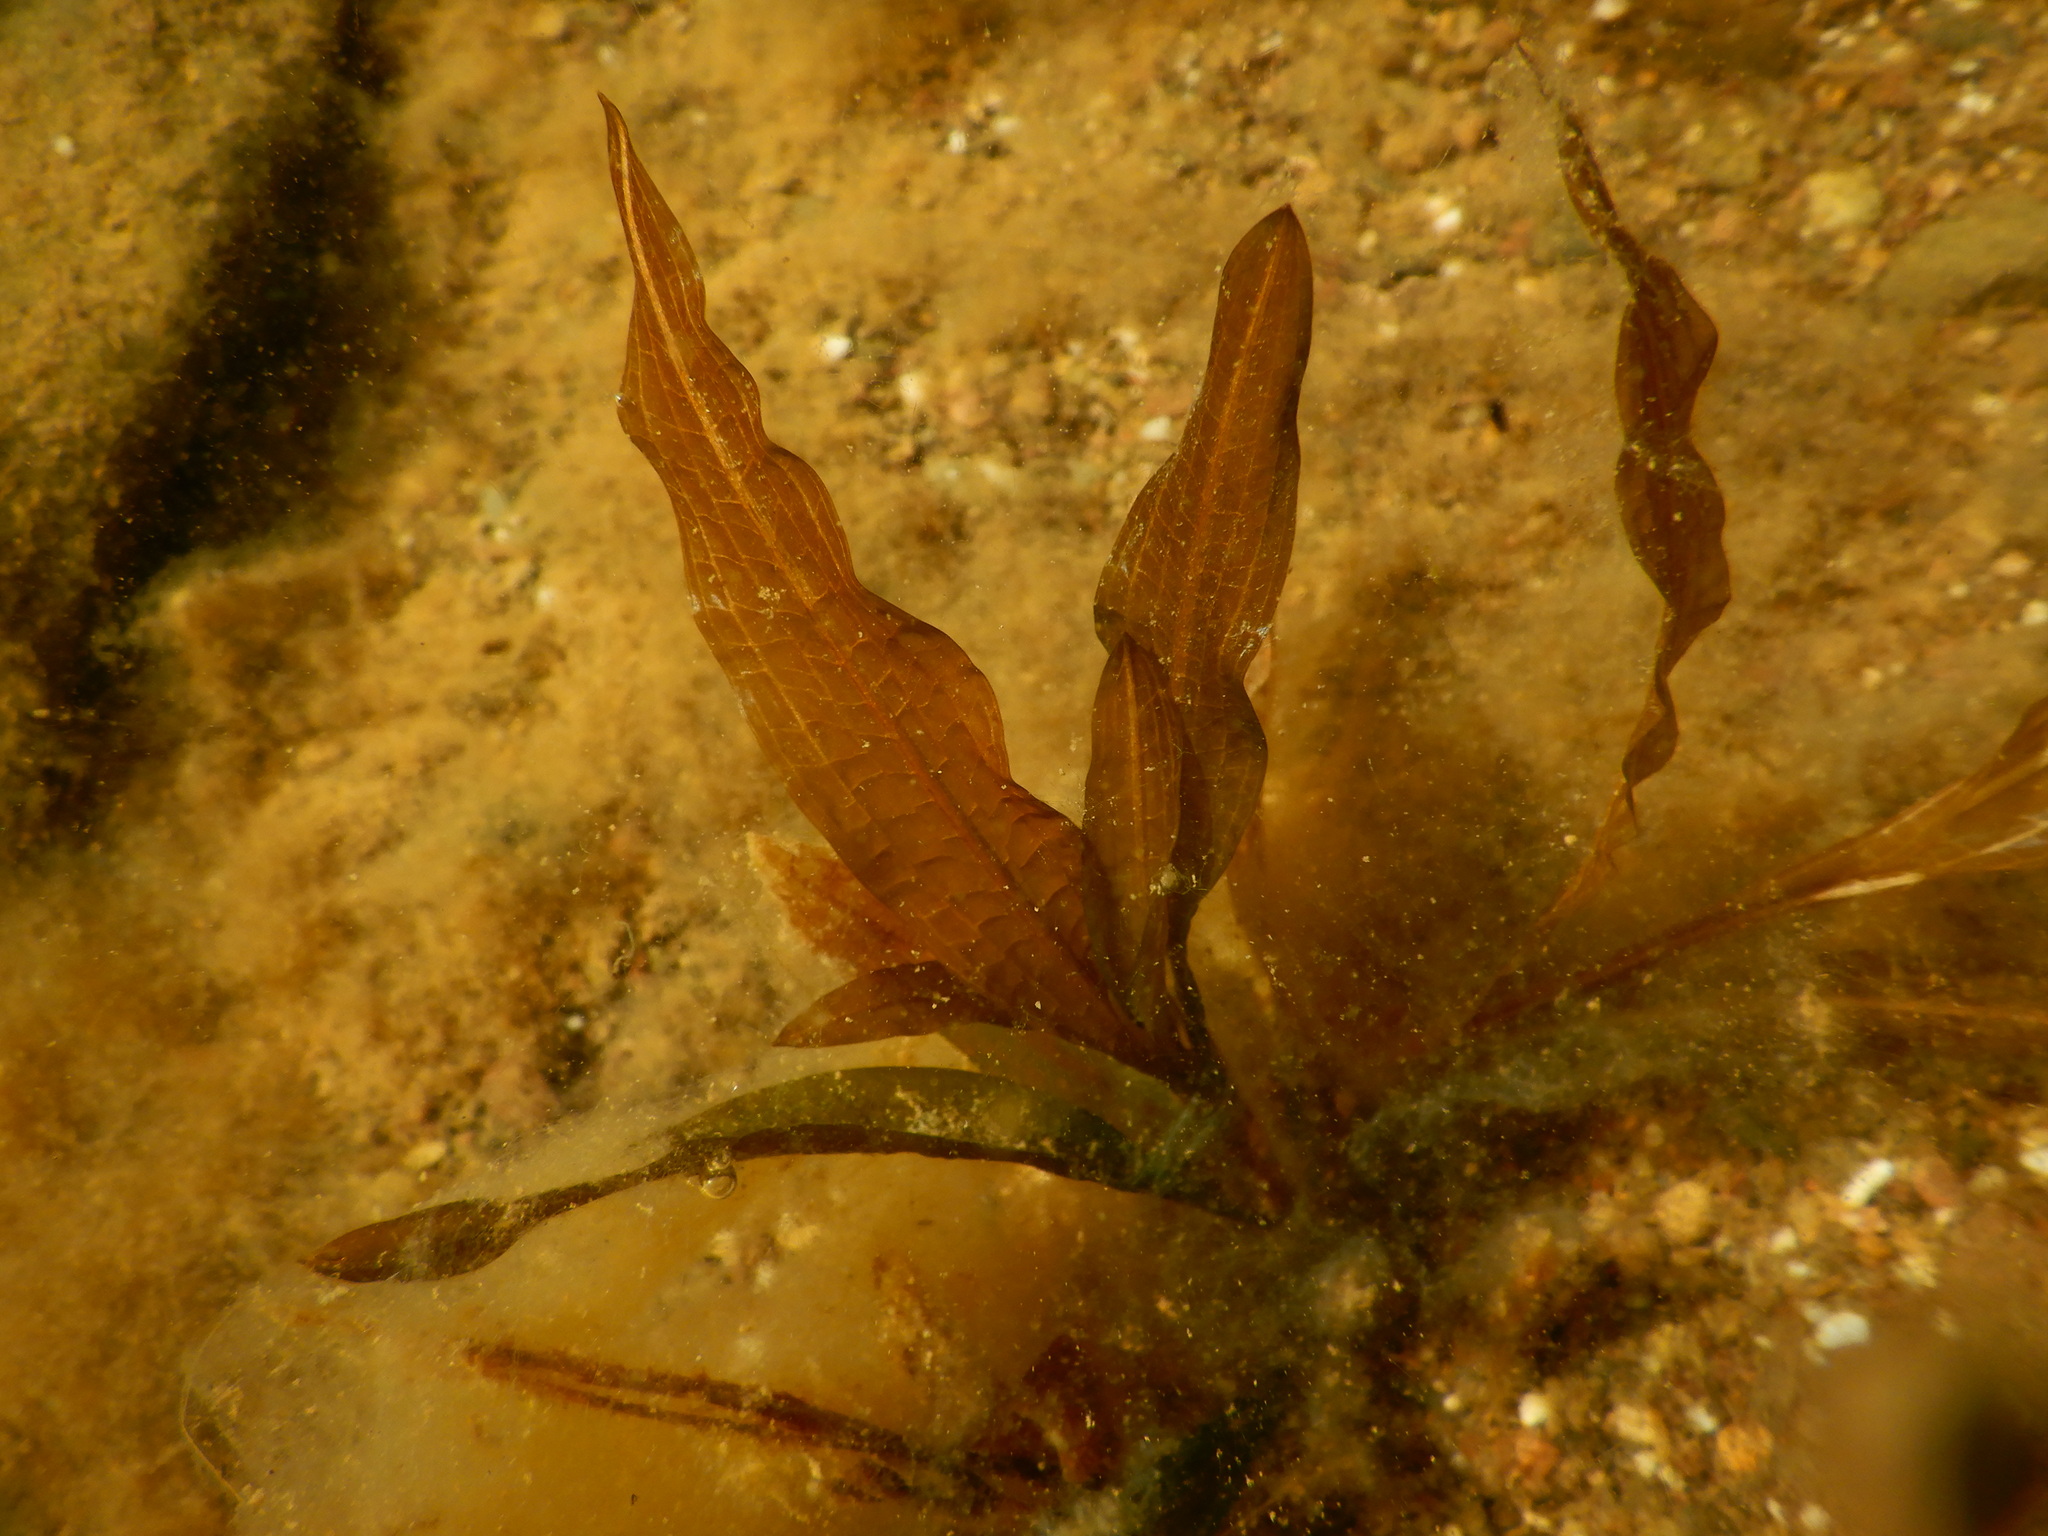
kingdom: Plantae
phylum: Tracheophyta
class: Liliopsida
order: Alismatales
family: Potamogetonaceae
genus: Potamogeton
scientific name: Potamogeton schweinfurthii
